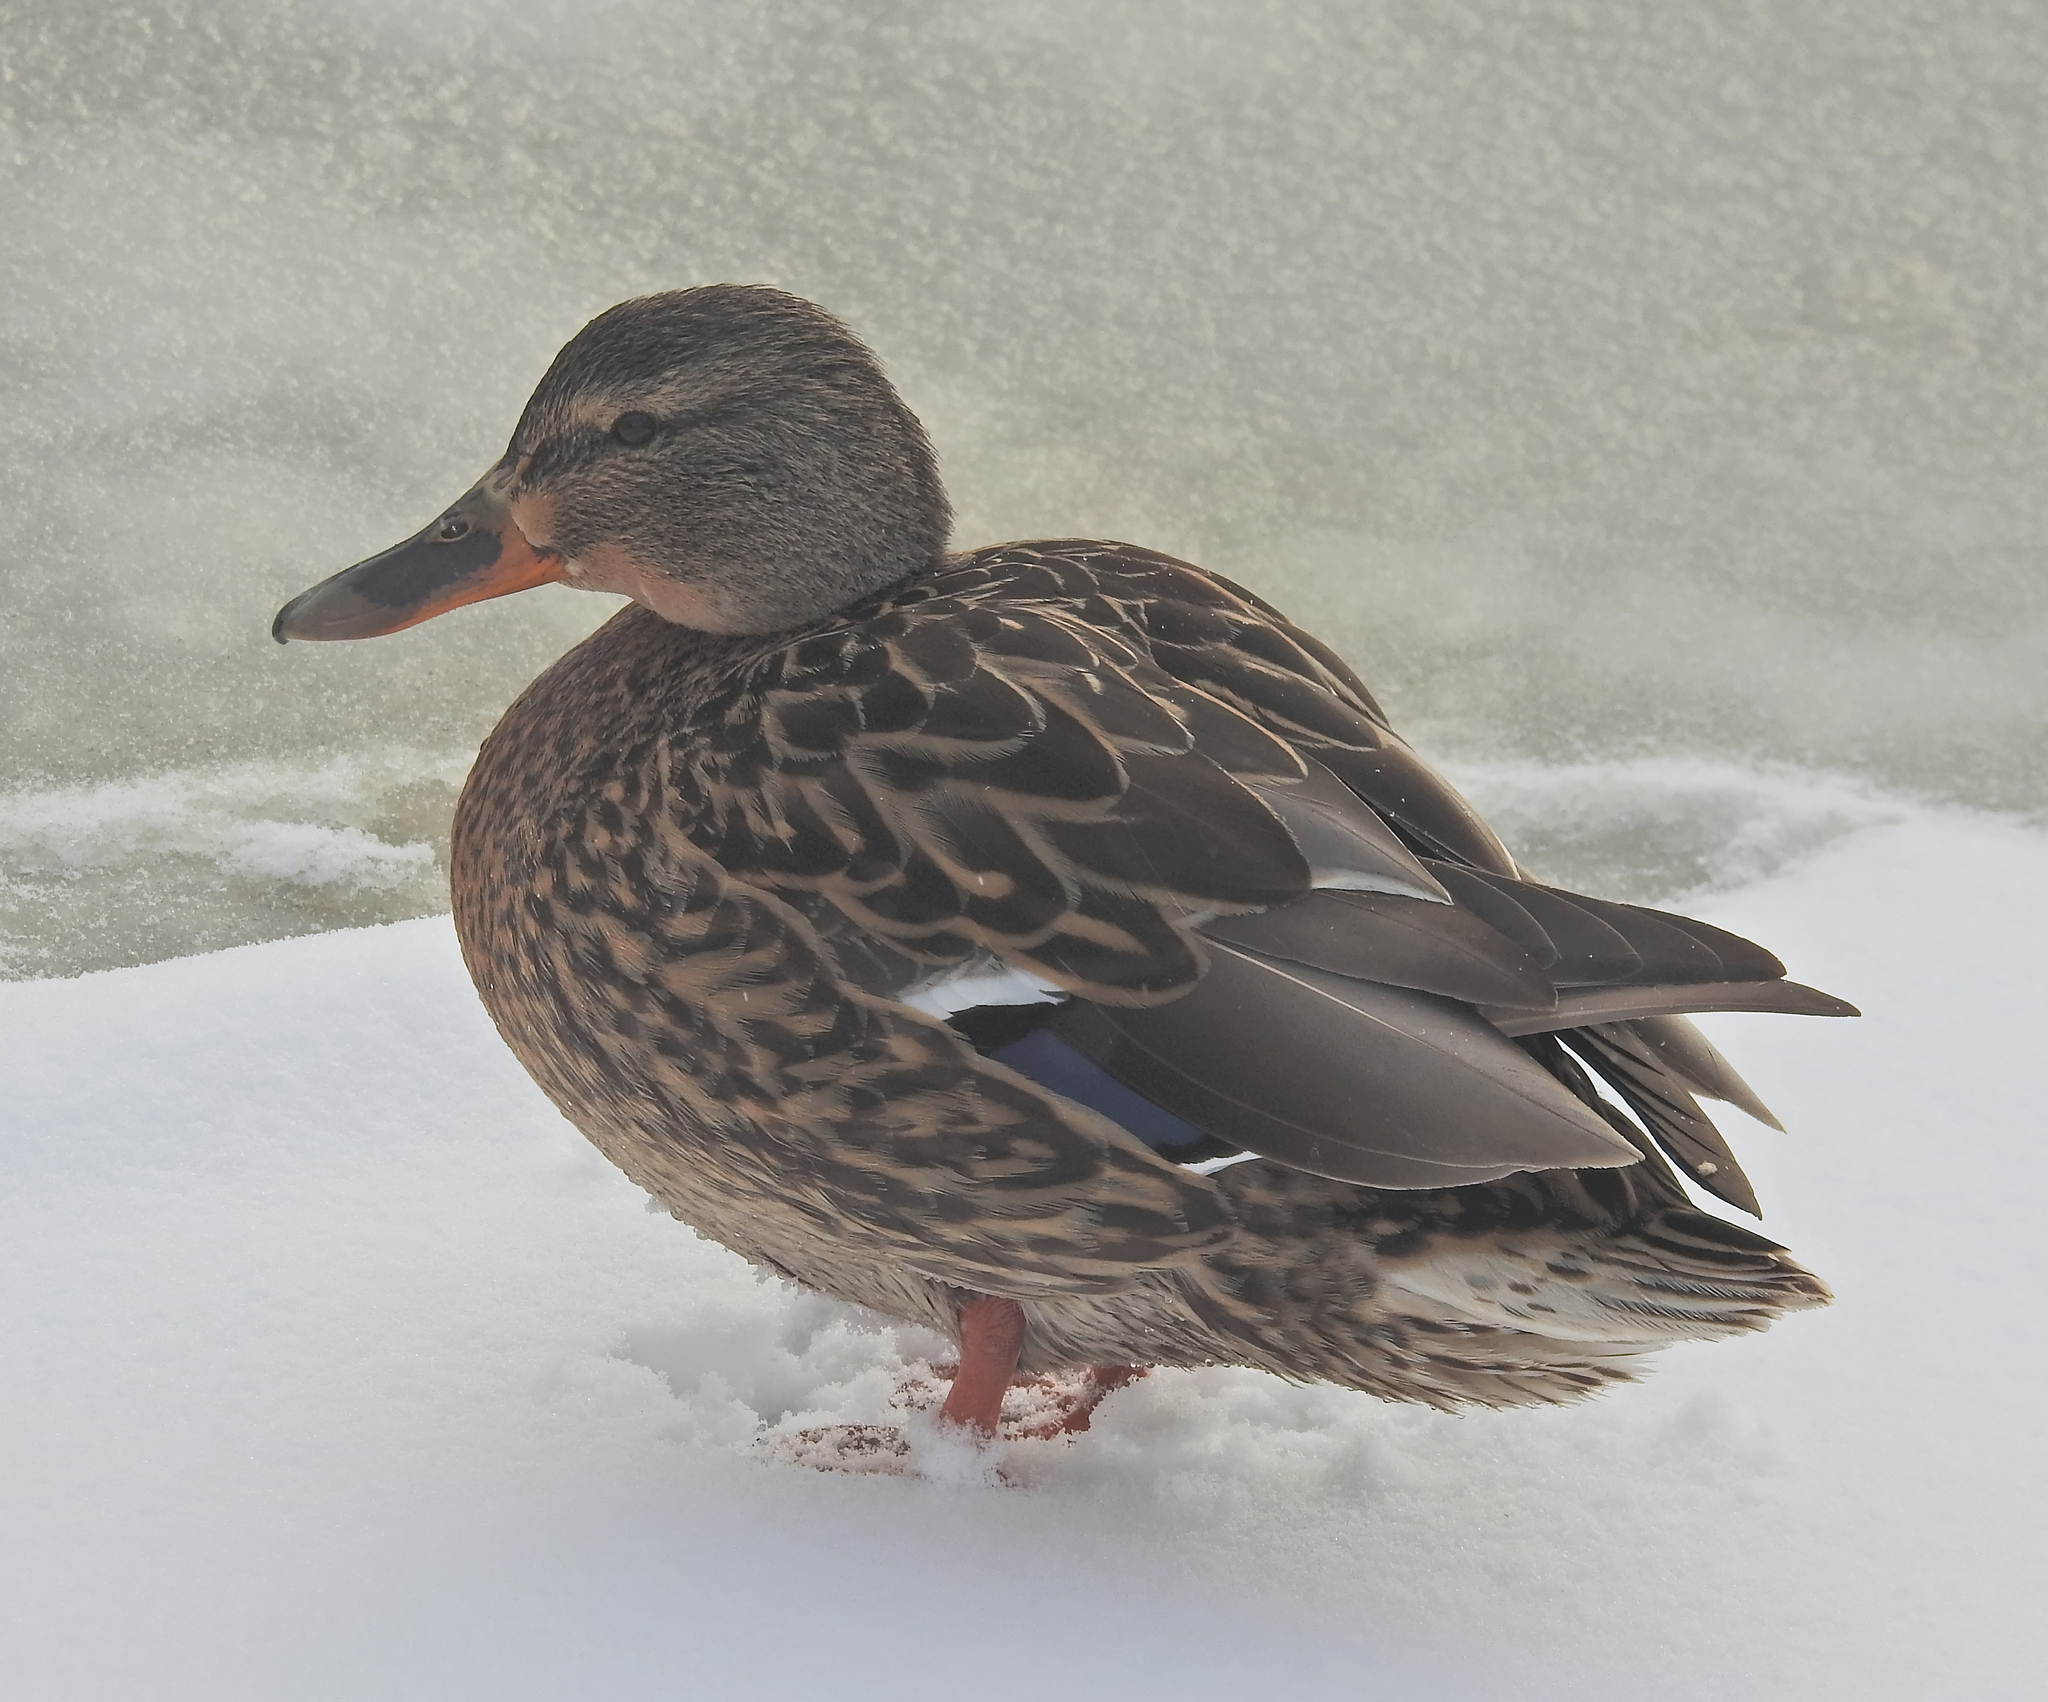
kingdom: Animalia
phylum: Chordata
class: Aves
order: Anseriformes
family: Anatidae
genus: Anas
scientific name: Anas platyrhynchos
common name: Mallard
